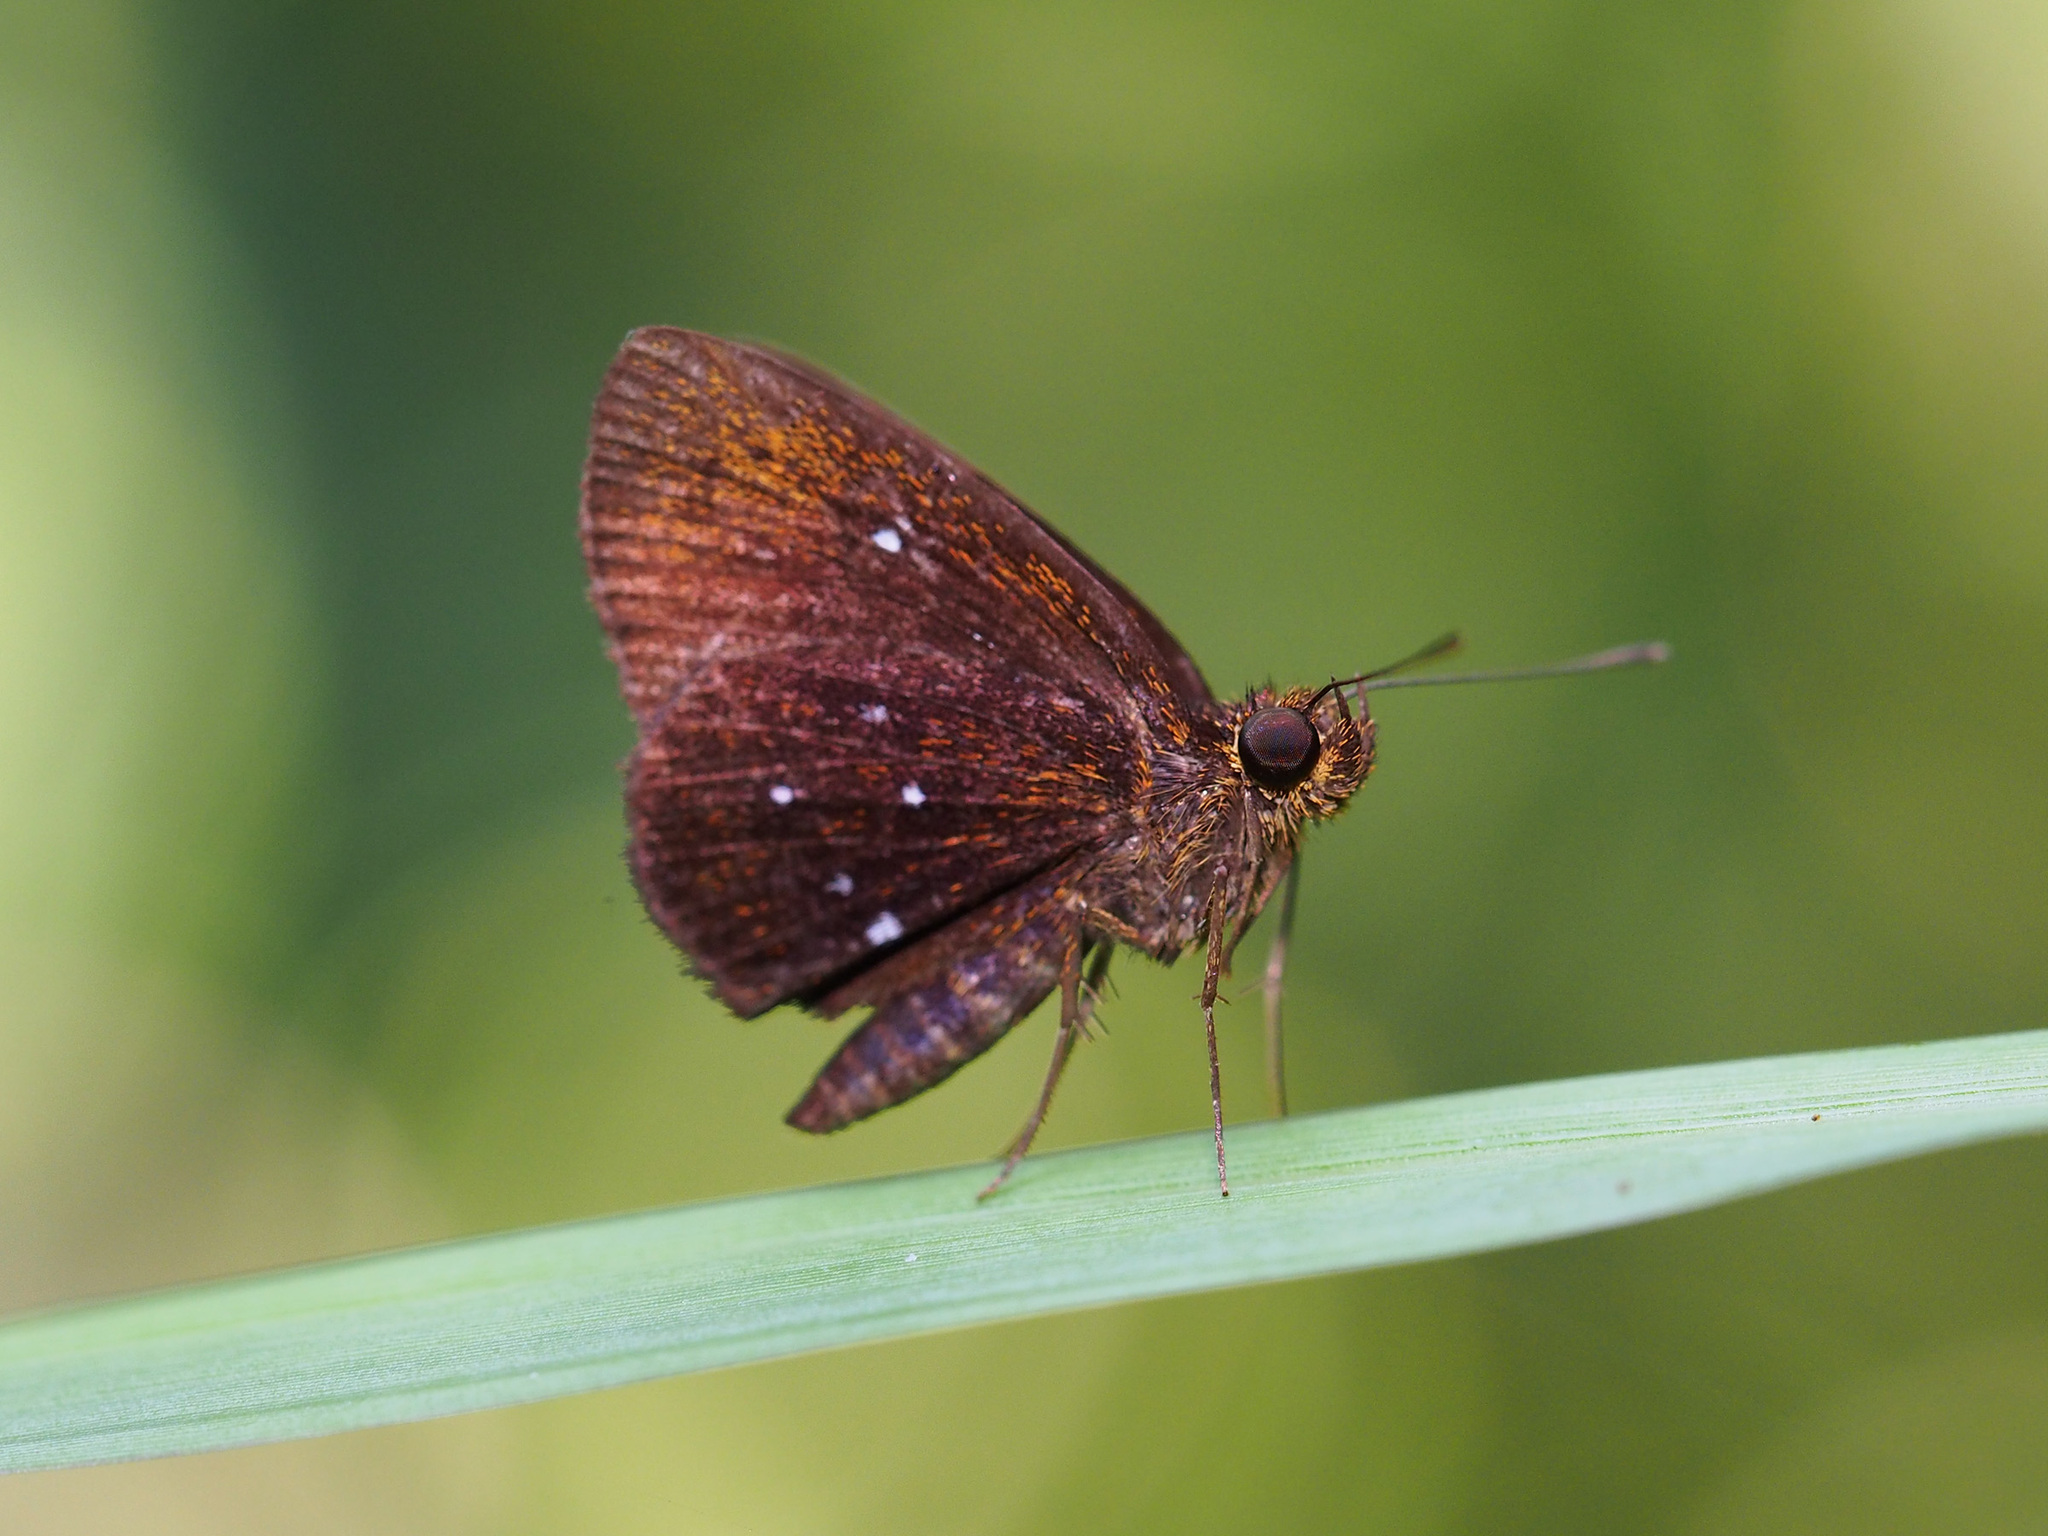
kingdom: Animalia
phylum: Arthropoda
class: Insecta
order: Lepidoptera
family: Hesperiidae
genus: Iambrix
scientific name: Iambrix stellifer
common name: Starry bob
